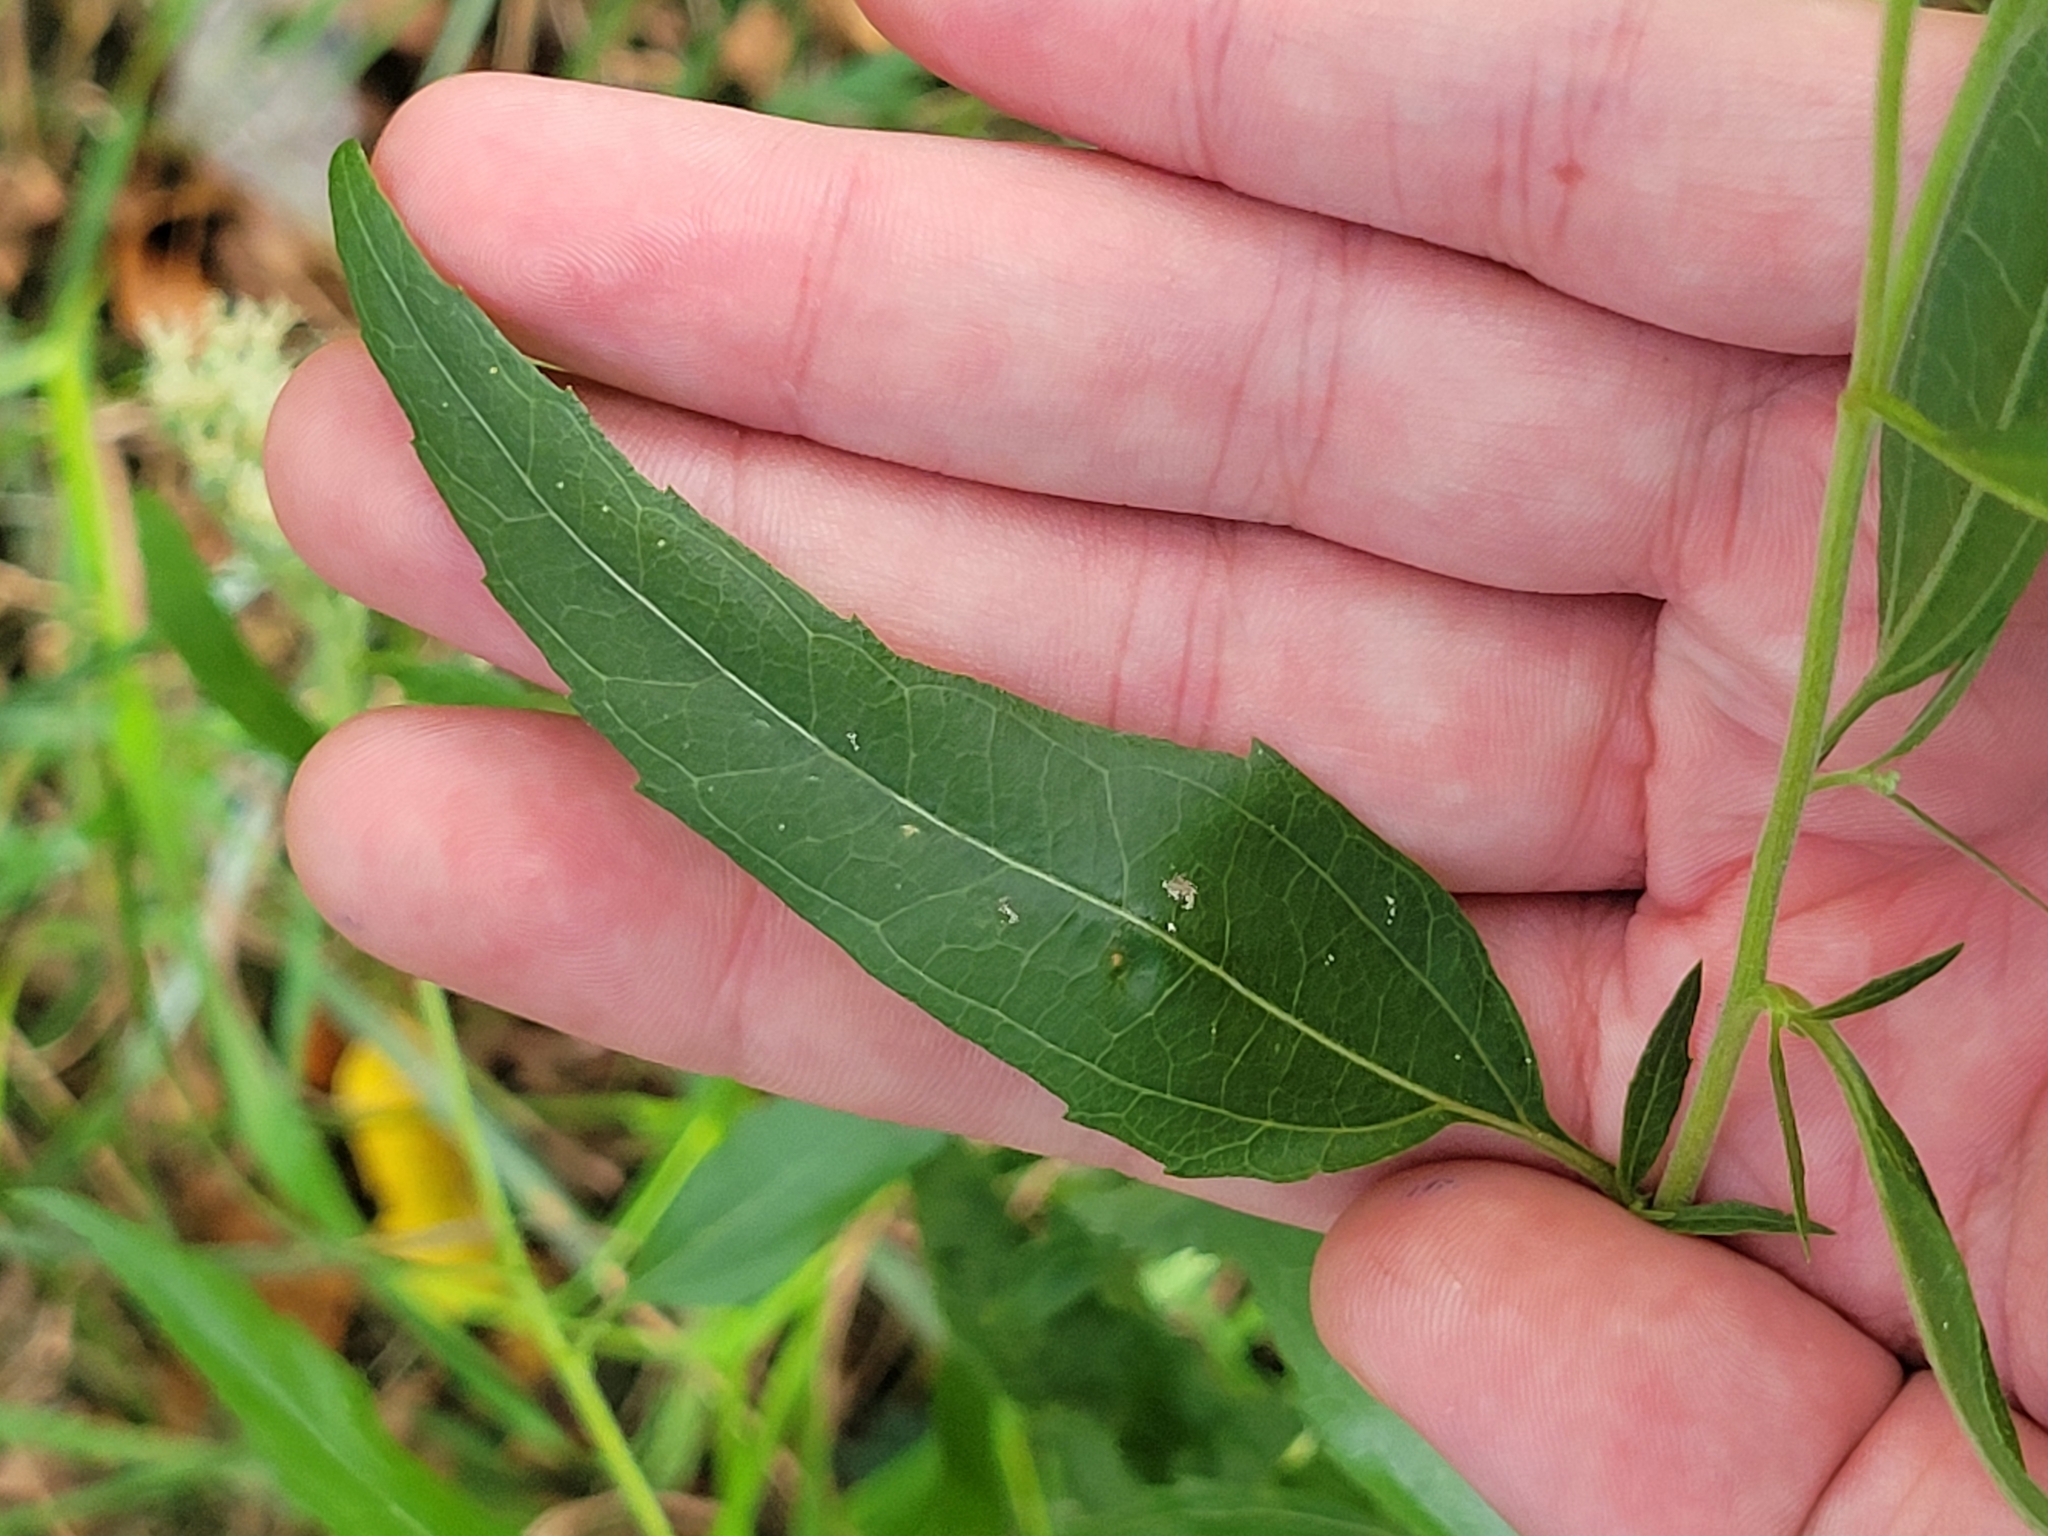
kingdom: Plantae
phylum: Tracheophyta
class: Magnoliopsida
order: Asterales
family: Asteraceae
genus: Eupatorium
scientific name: Eupatorium serotinum
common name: Late boneset
